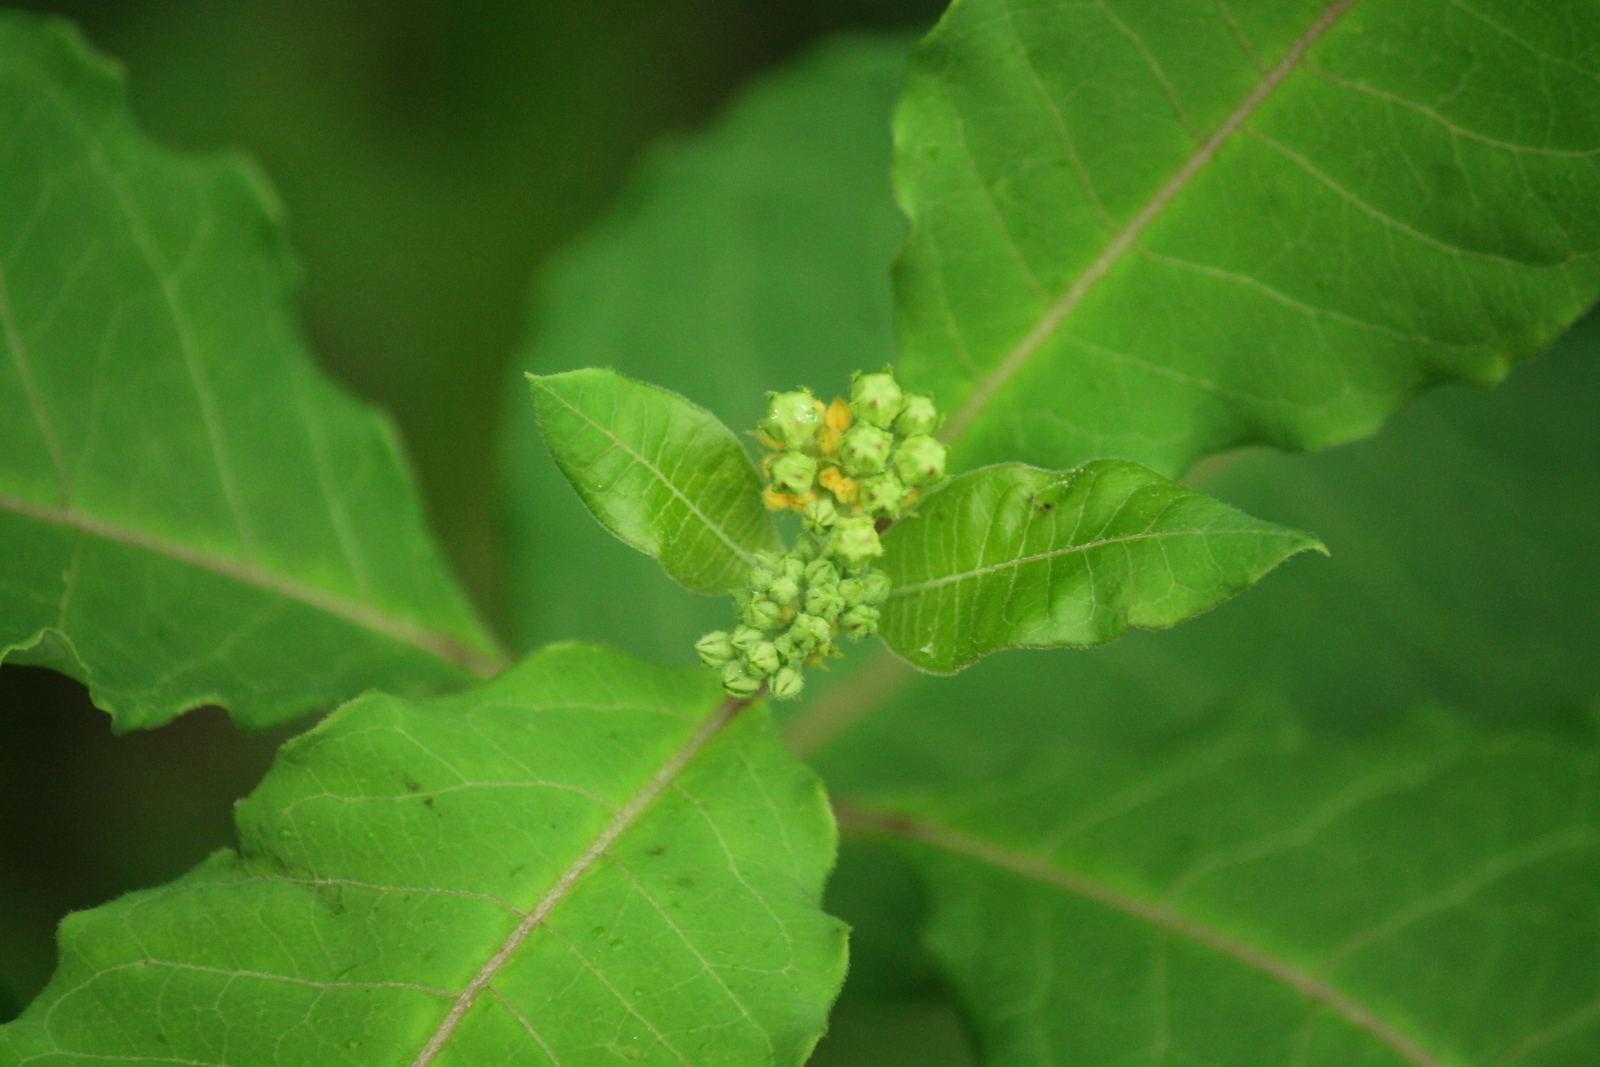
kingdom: Plantae
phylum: Tracheophyta
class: Magnoliopsida
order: Gentianales
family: Apocynaceae
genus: Asclepias
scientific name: Asclepias variegata
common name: Variegated milkweed
